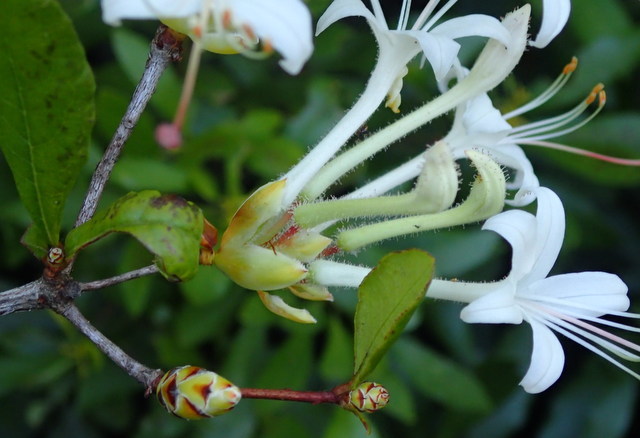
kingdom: Plantae
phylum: Tracheophyta
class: Magnoliopsida
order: Ericales
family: Ericaceae
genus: Rhododendron
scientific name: Rhododendron serrulatum
